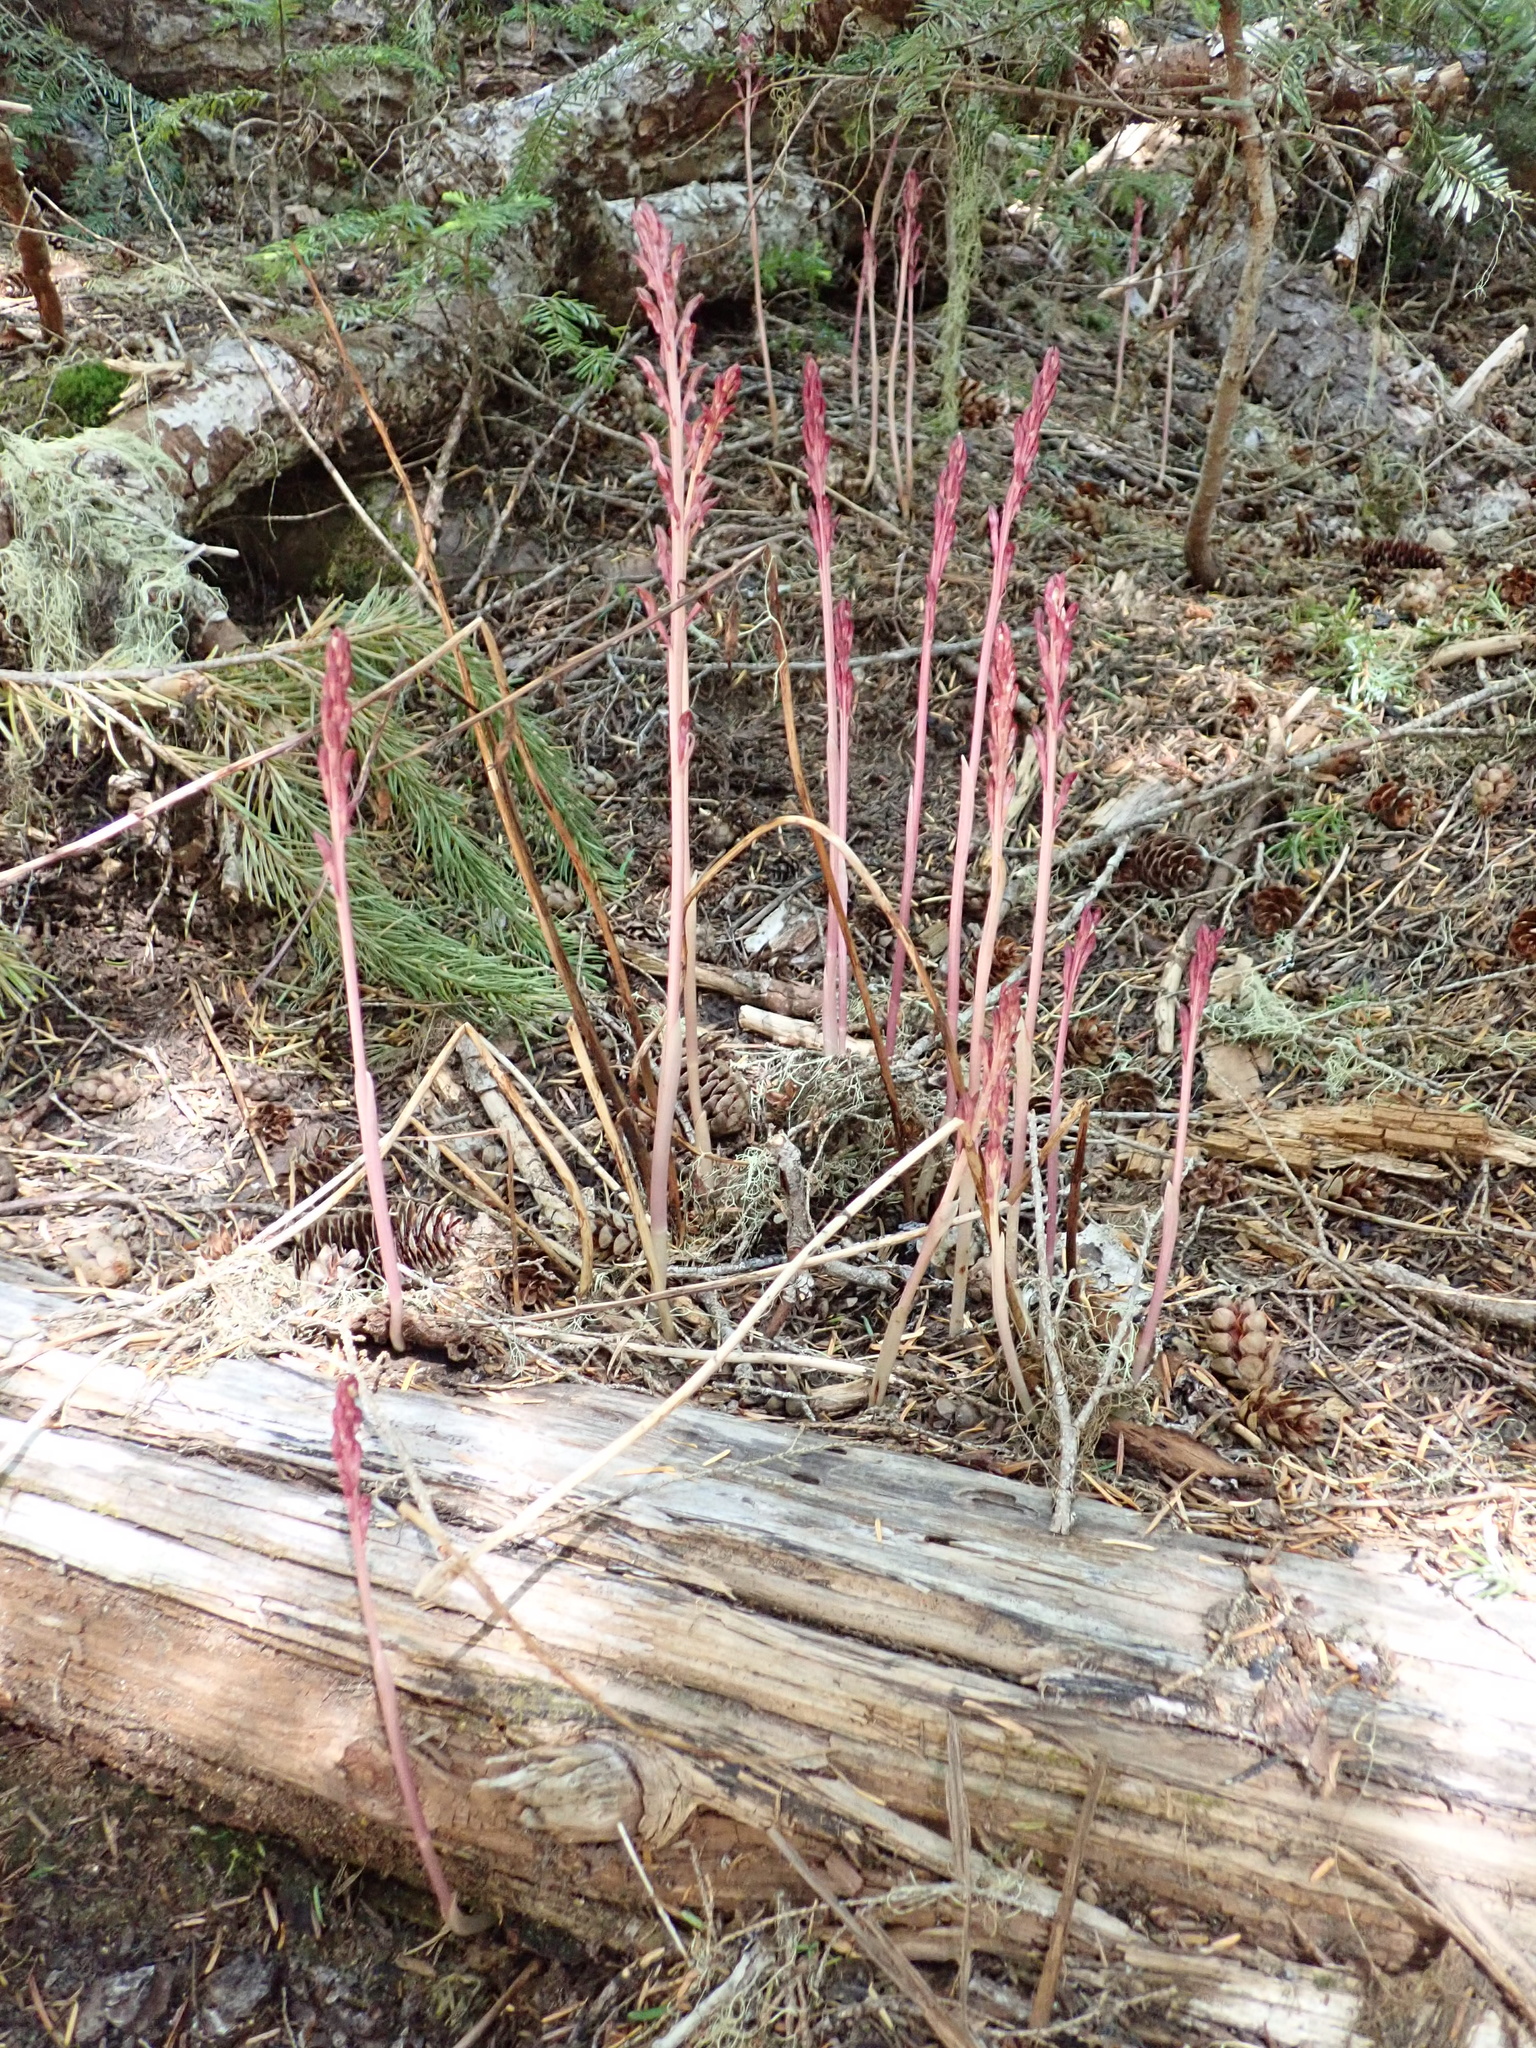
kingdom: Plantae
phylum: Tracheophyta
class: Liliopsida
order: Asparagales
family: Orchidaceae
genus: Corallorhiza
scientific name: Corallorhiza mertensiana
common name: Pacific coralroot
